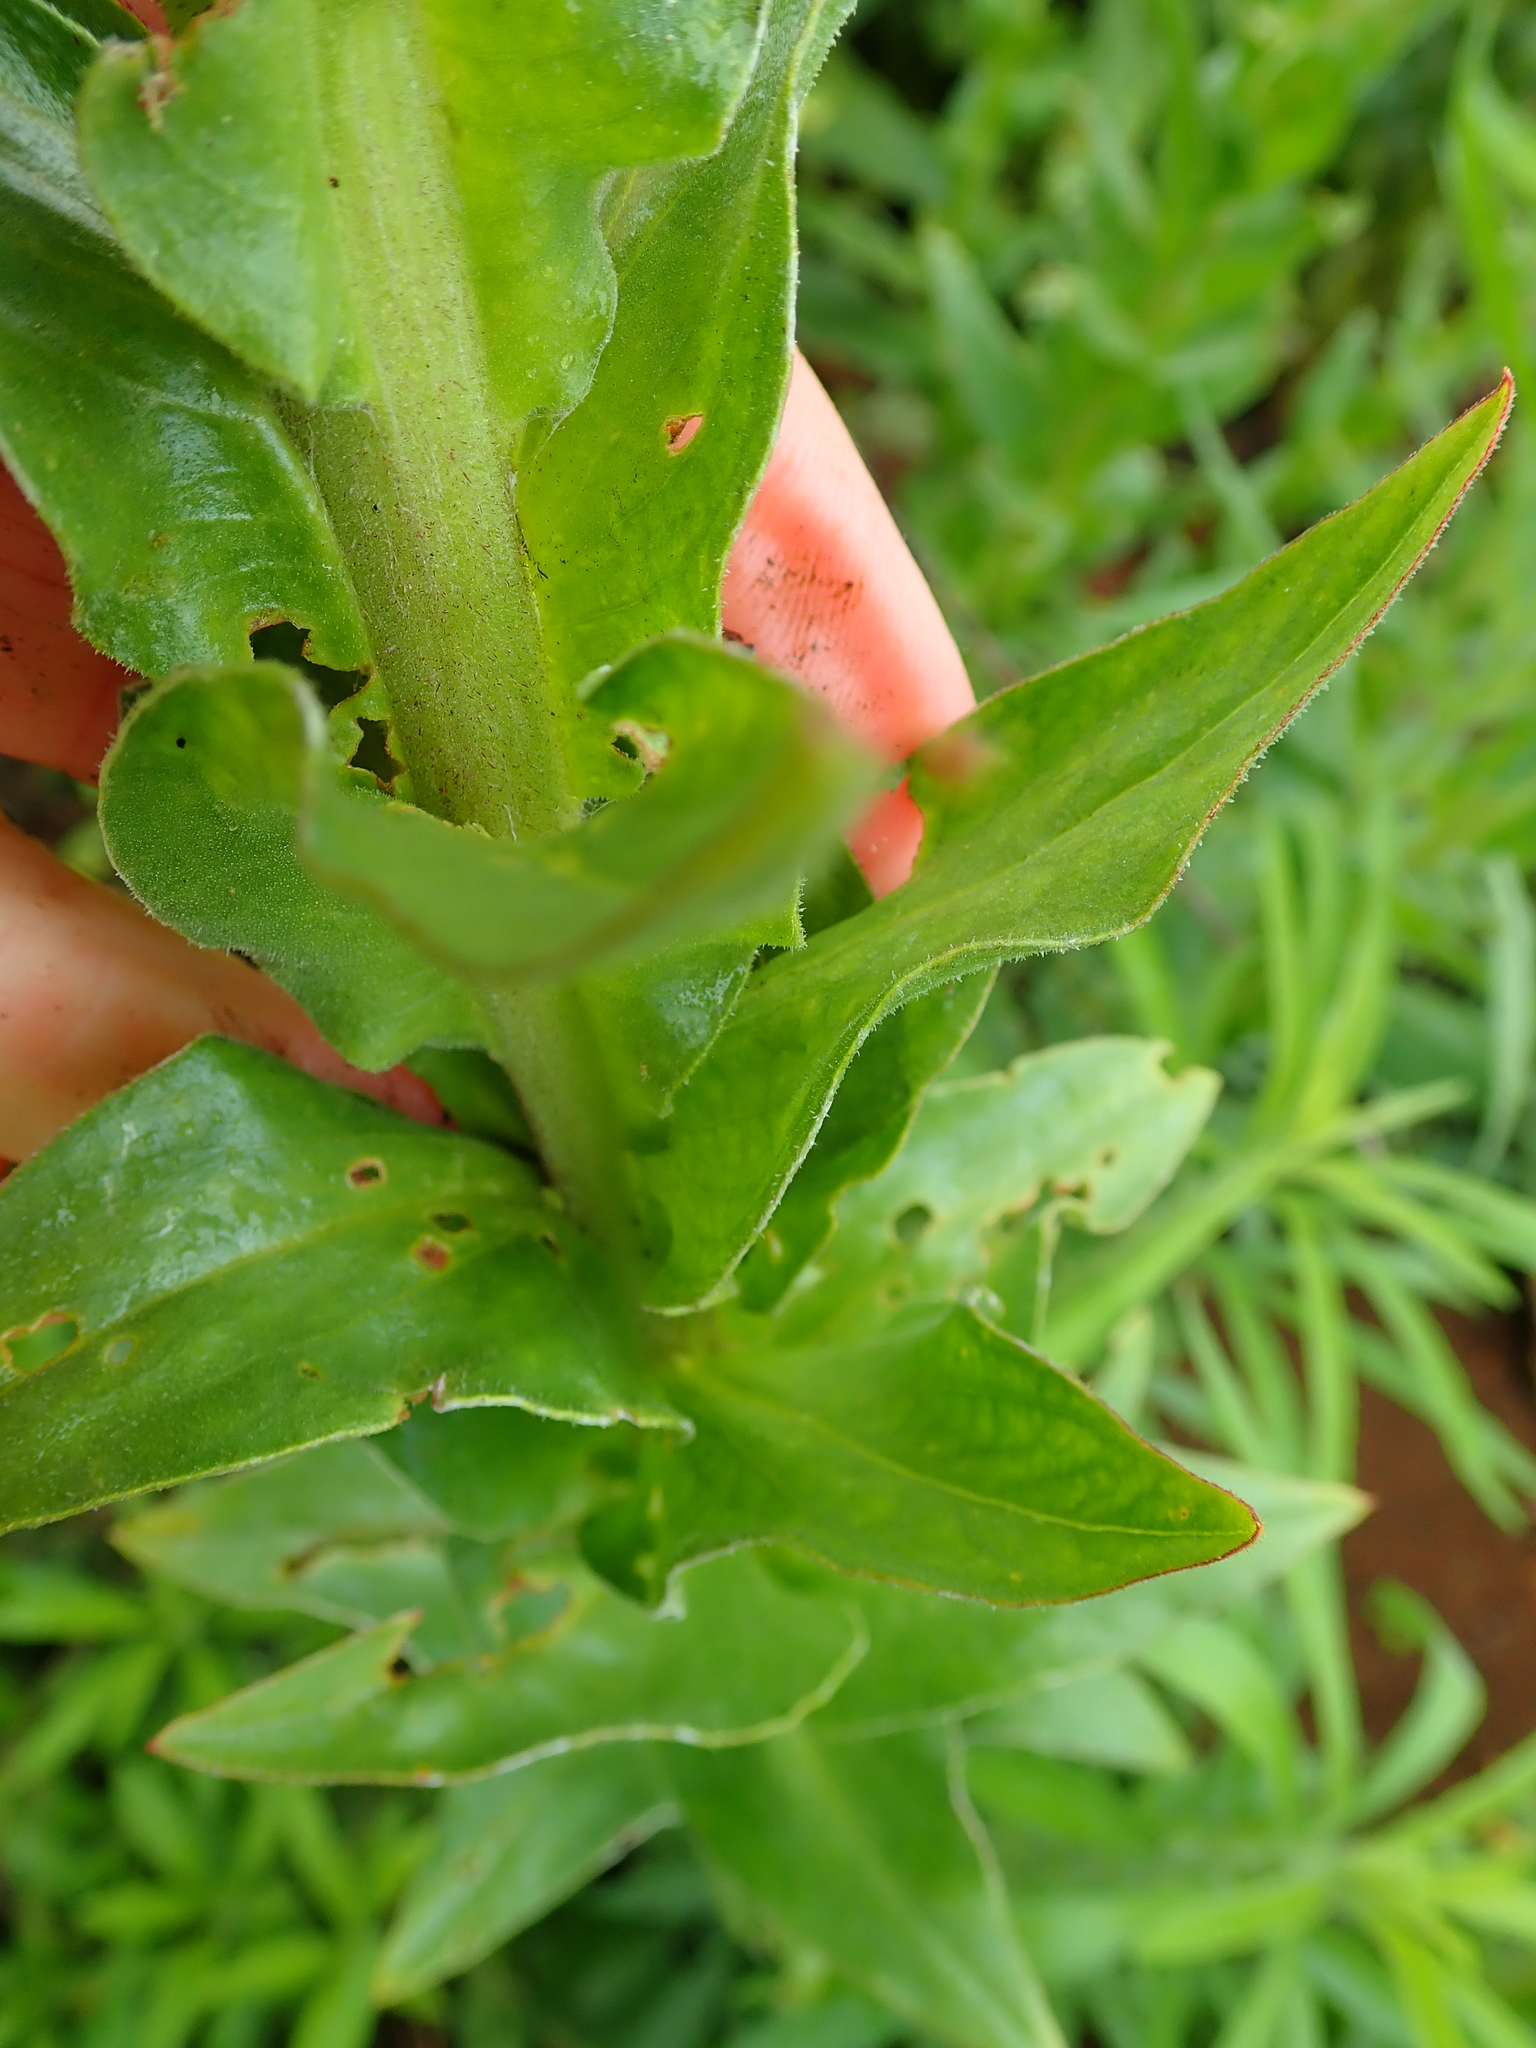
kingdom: Plantae
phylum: Tracheophyta
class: Magnoliopsida
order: Asterales
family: Asteraceae
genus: Helichrysum
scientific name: Helichrysum ruderale
